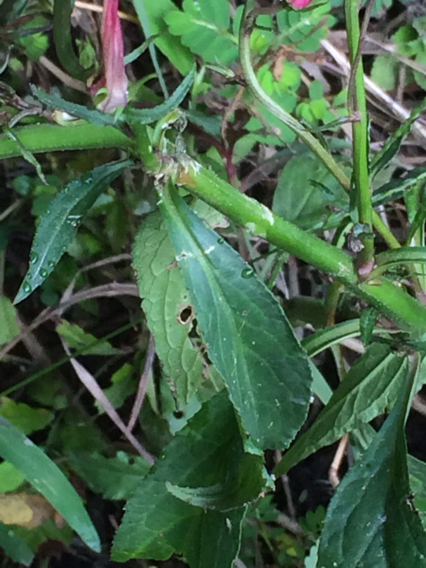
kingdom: Plantae
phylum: Tracheophyta
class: Magnoliopsida
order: Asterales
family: Campanulaceae
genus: Lobelia
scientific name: Lobelia cardinalis
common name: Cardinal flower
